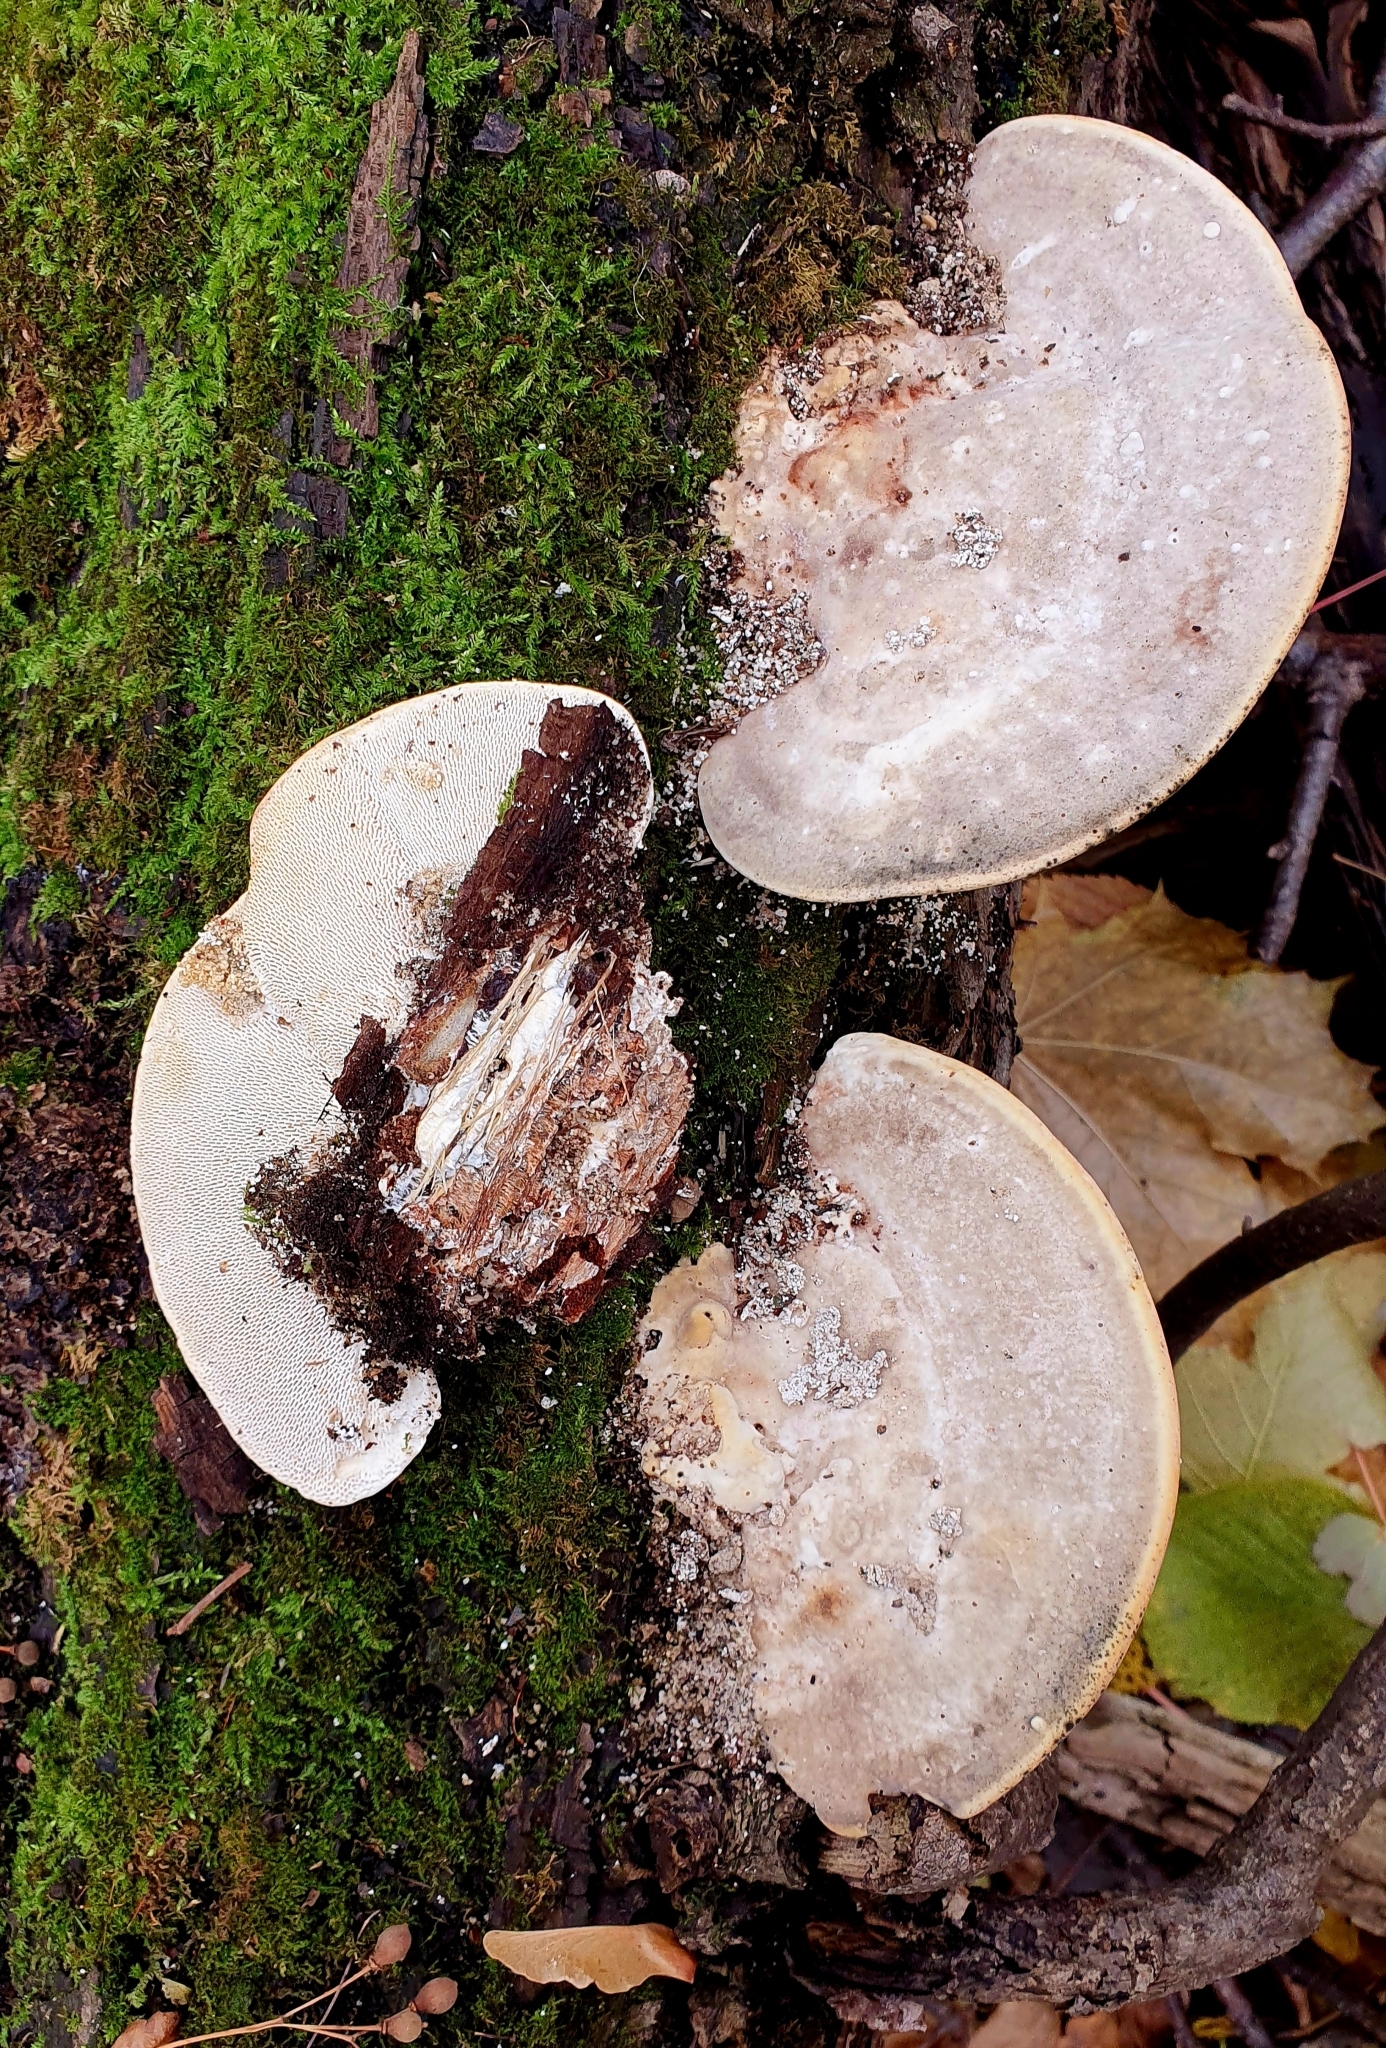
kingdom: Fungi
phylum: Basidiomycota
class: Agaricomycetes
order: Polyporales
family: Polyporaceae
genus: Trametes
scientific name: Trametes gibbosa
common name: Lumpy bracket
